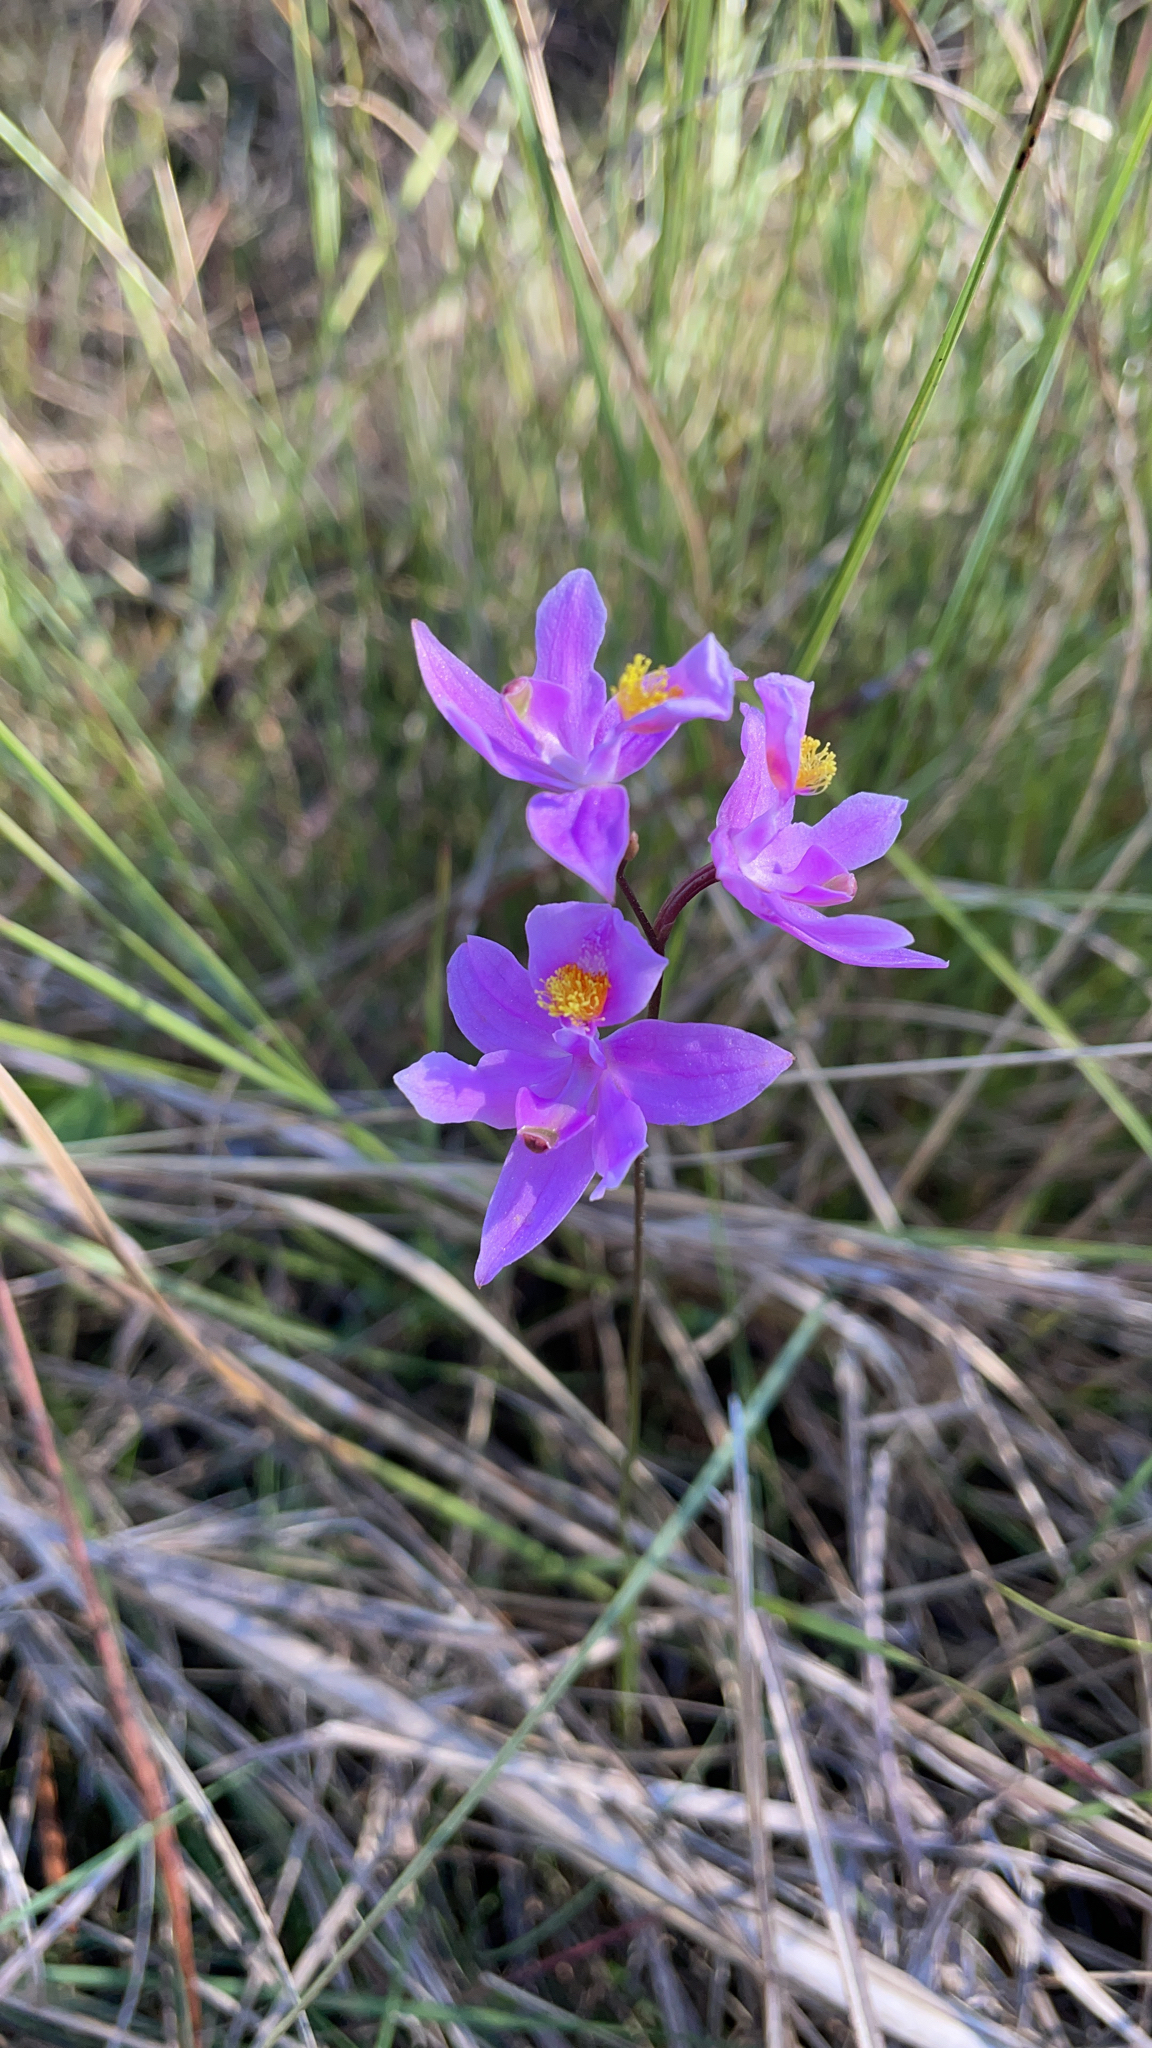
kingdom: Plantae
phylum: Tracheophyta
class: Liliopsida
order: Asparagales
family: Orchidaceae
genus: Calopogon
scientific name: Calopogon barbatus
